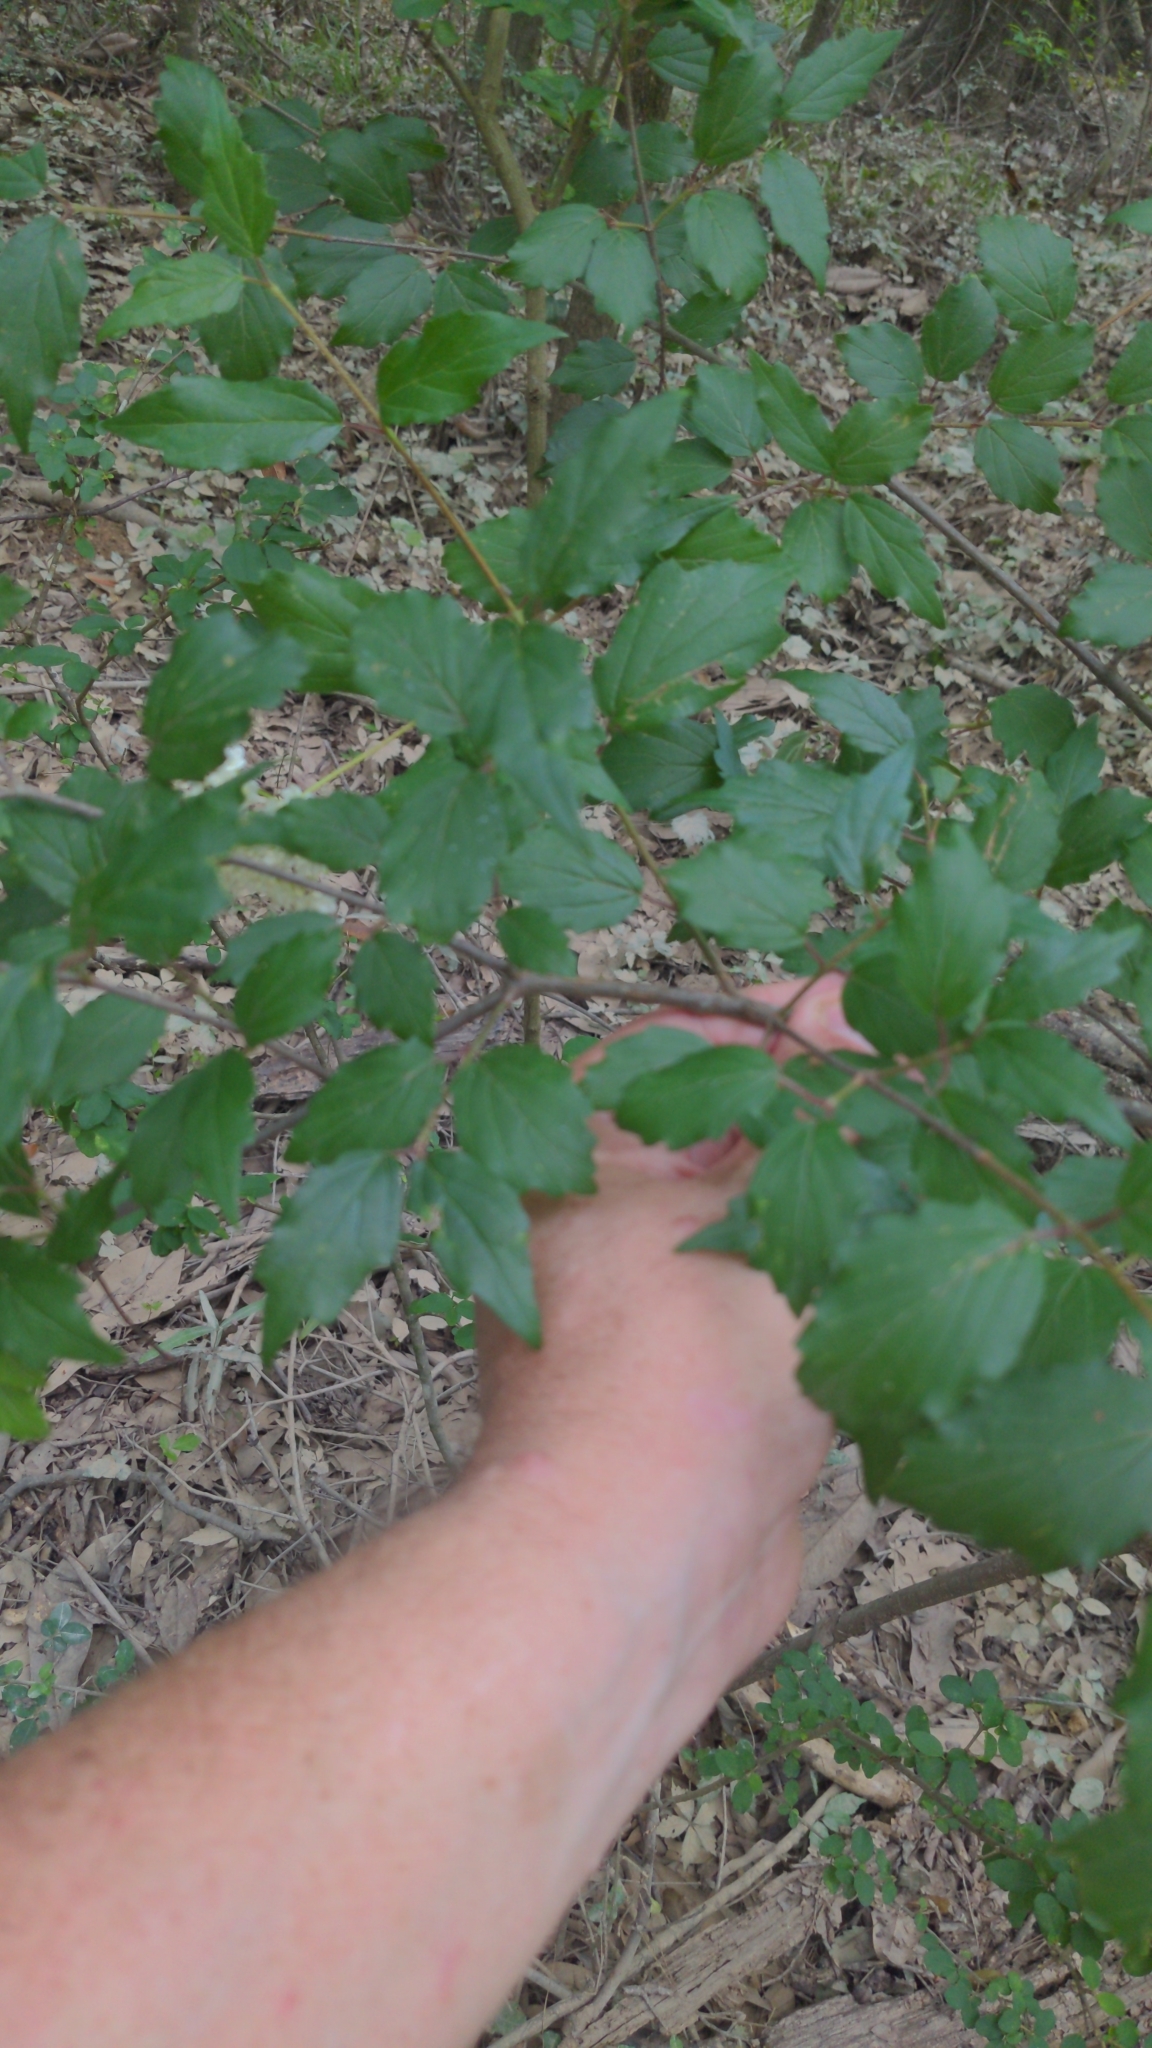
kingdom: Plantae
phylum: Tracheophyta
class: Magnoliopsida
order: Dipsacales
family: Viburnaceae
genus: Viburnum
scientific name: Viburnum scabrellum
